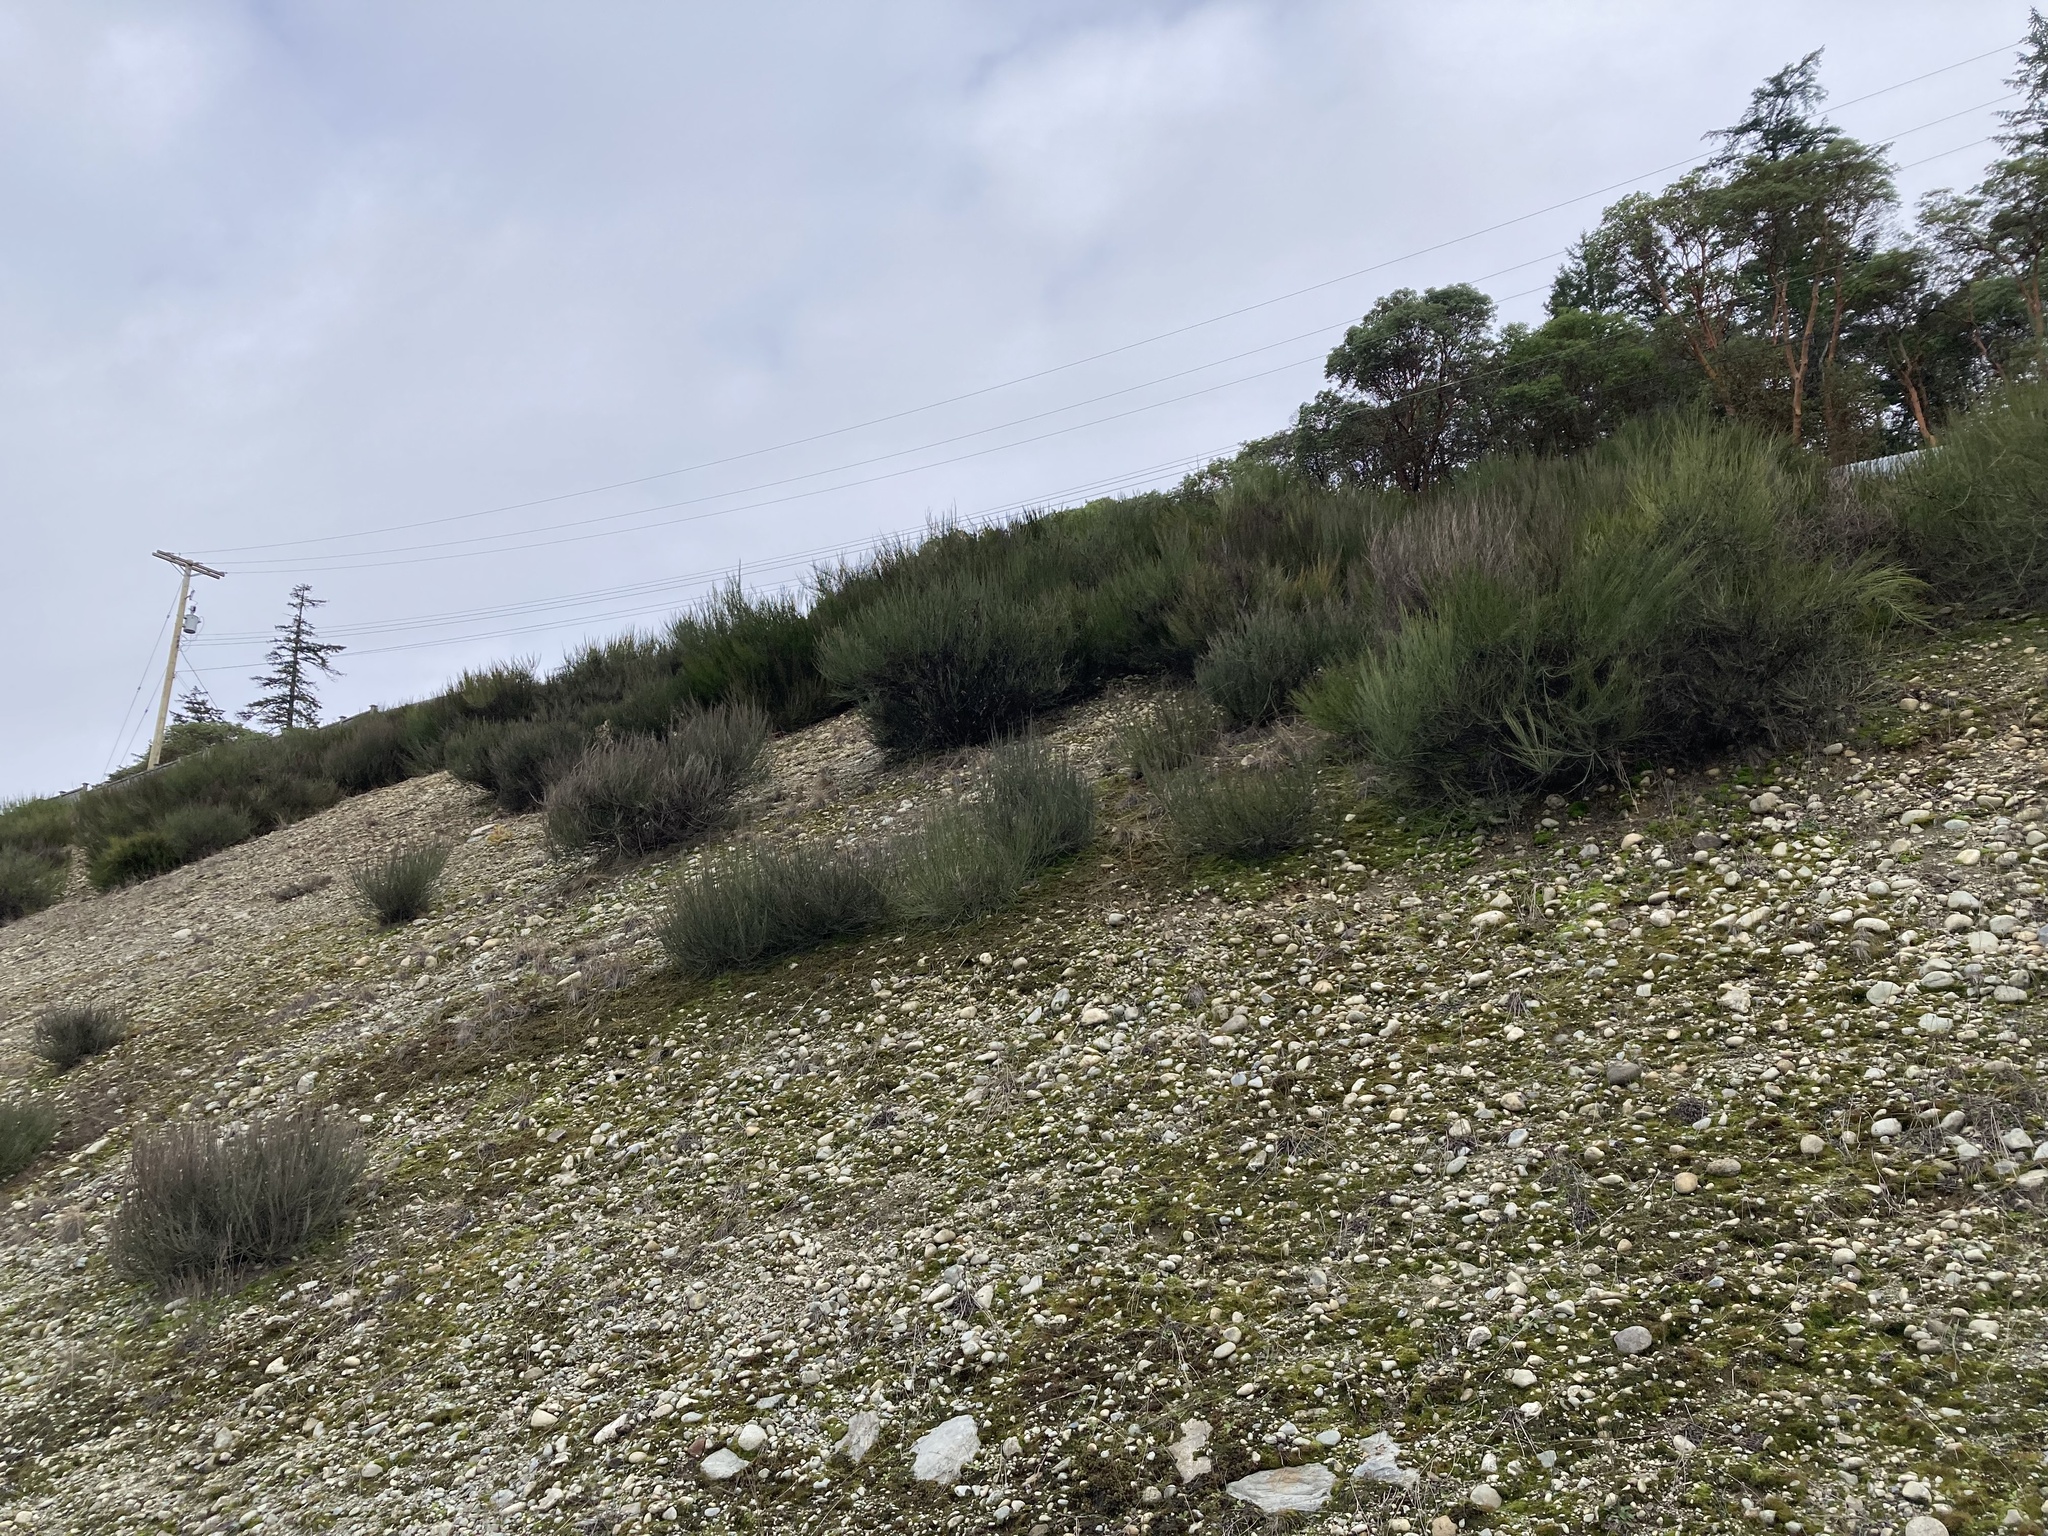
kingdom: Plantae
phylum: Tracheophyta
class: Magnoliopsida
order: Fabales
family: Fabaceae
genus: Cytisus
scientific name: Cytisus scoparius
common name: Scotch broom
